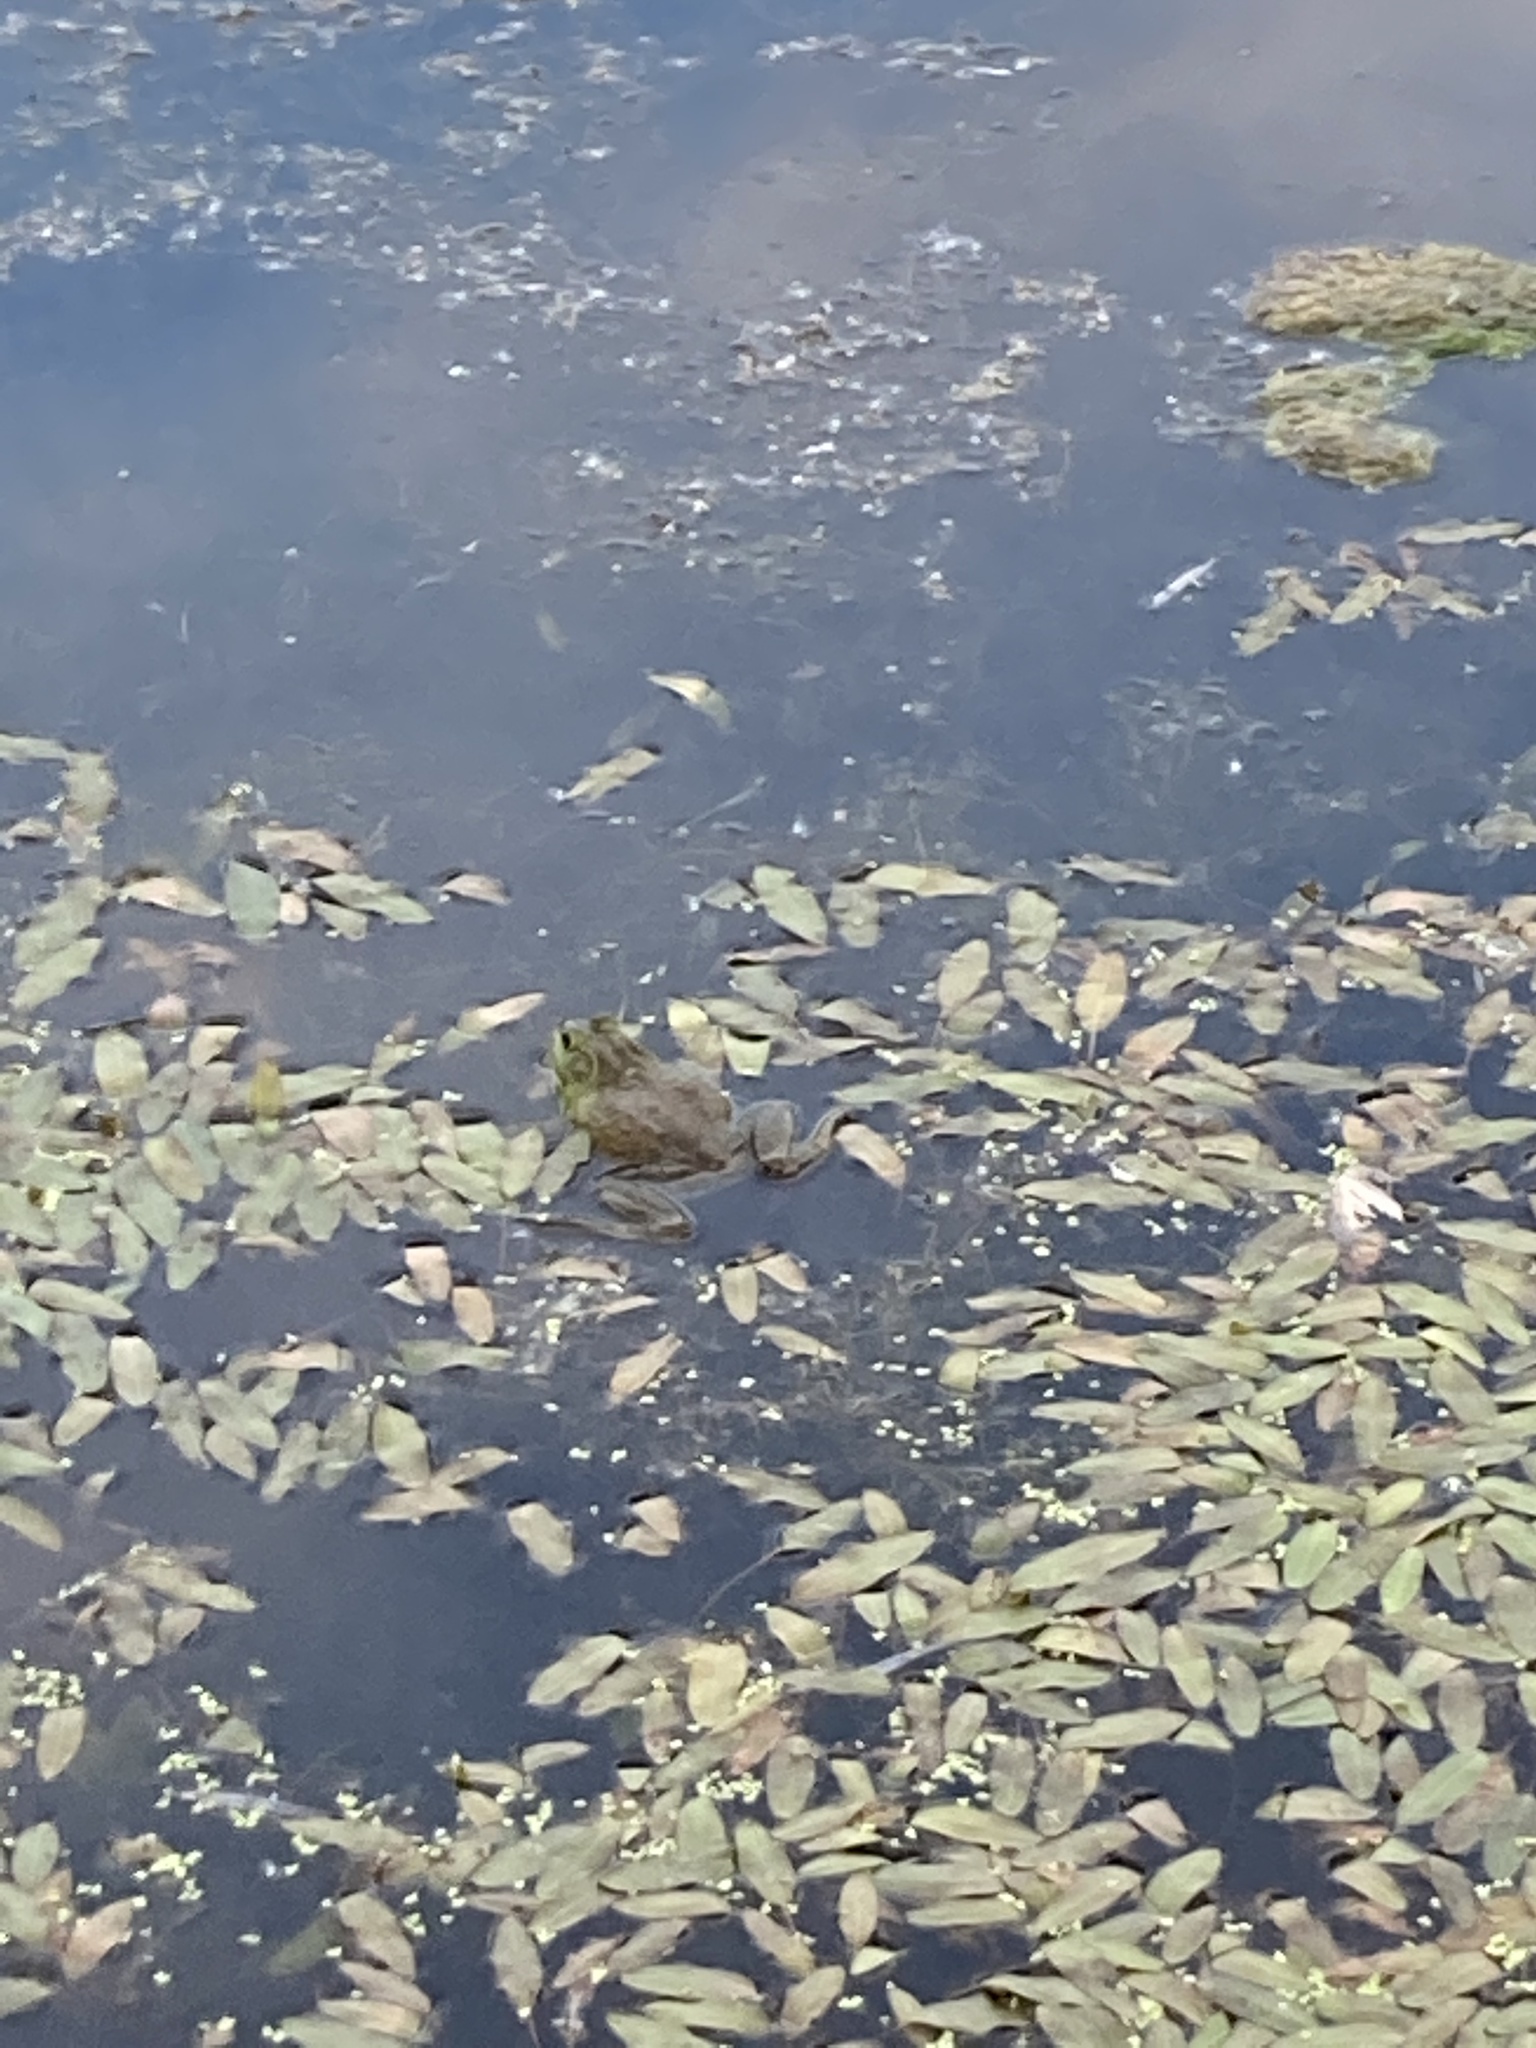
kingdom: Animalia
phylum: Chordata
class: Amphibia
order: Anura
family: Ranidae
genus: Lithobates
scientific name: Lithobates catesbeianus
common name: American bullfrog
